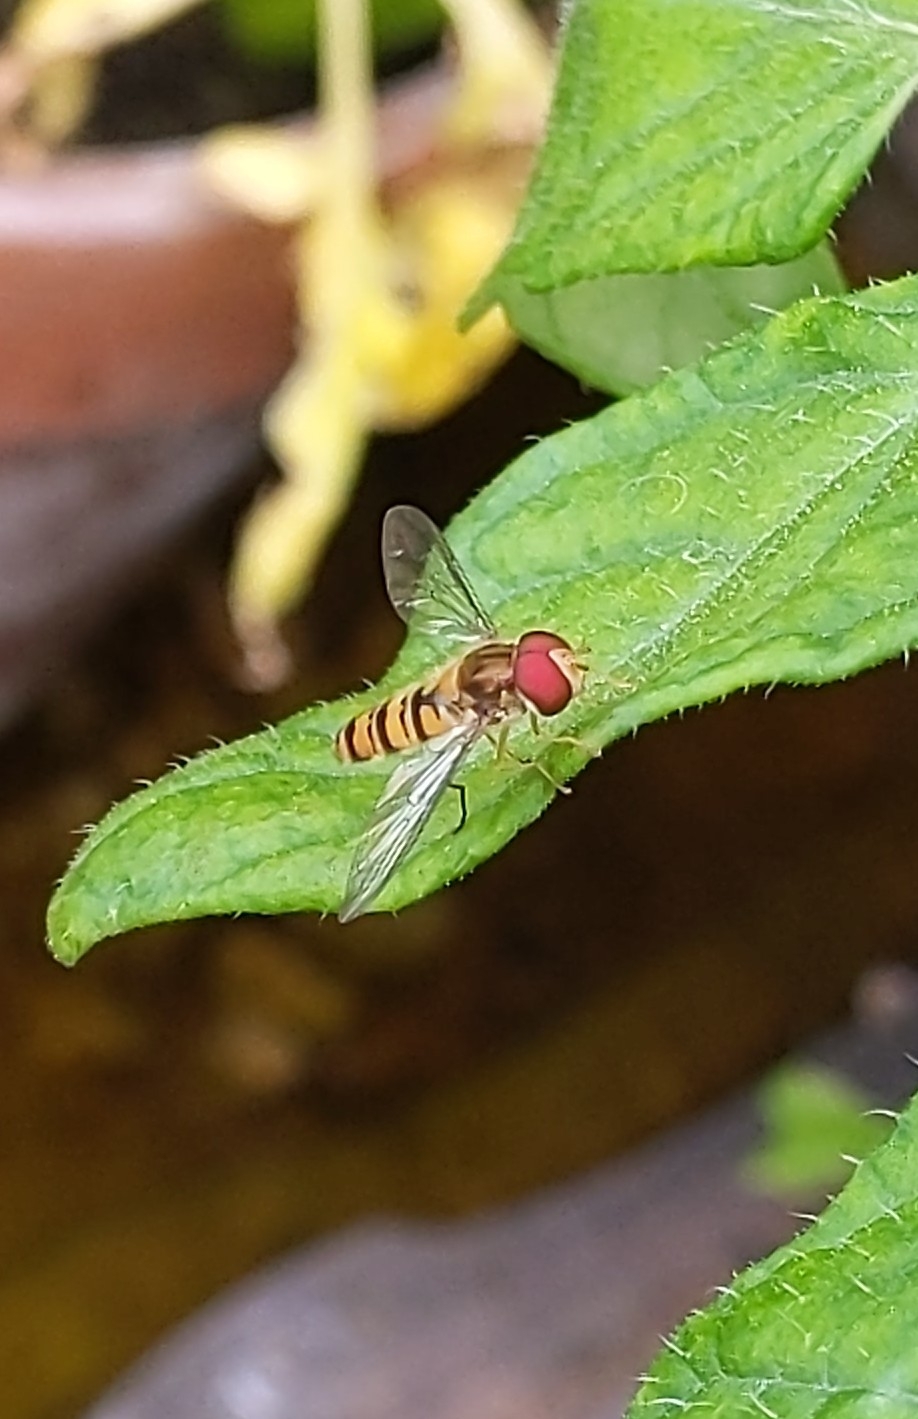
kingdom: Animalia
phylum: Arthropoda
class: Insecta
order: Diptera
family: Syrphidae
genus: Episyrphus
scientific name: Episyrphus balteatus
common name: Marmalade hoverfly
